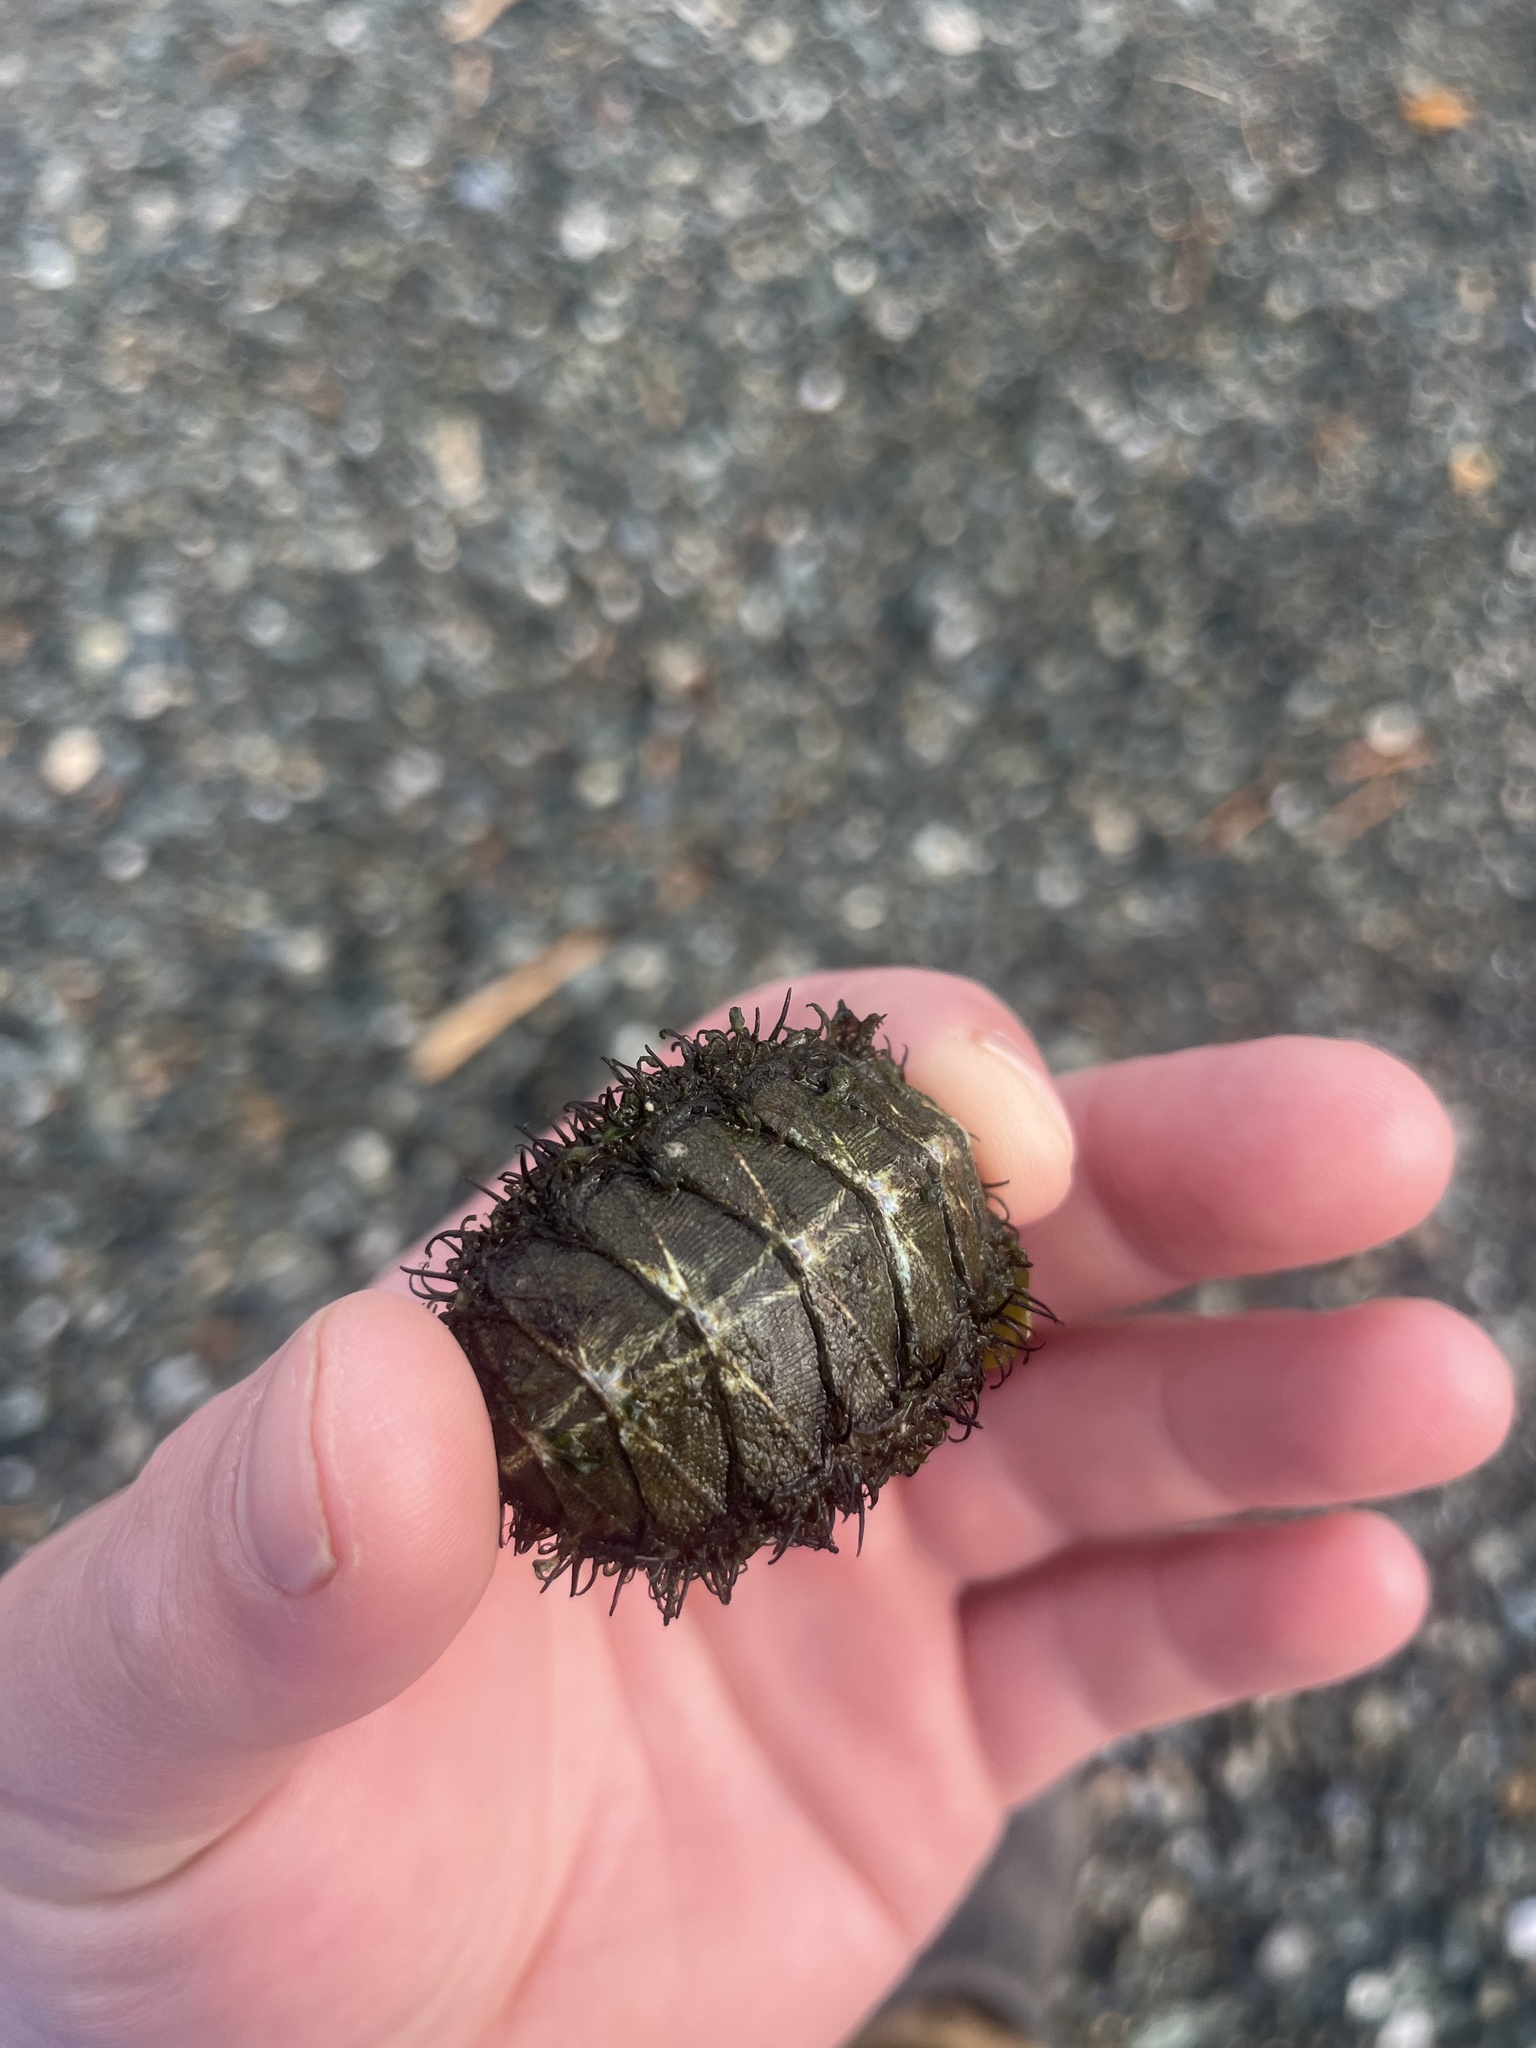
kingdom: Animalia
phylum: Mollusca
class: Polyplacophora
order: Chitonida
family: Mopaliidae
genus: Mopalia
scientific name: Mopalia muscosa
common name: Mossy chiton
